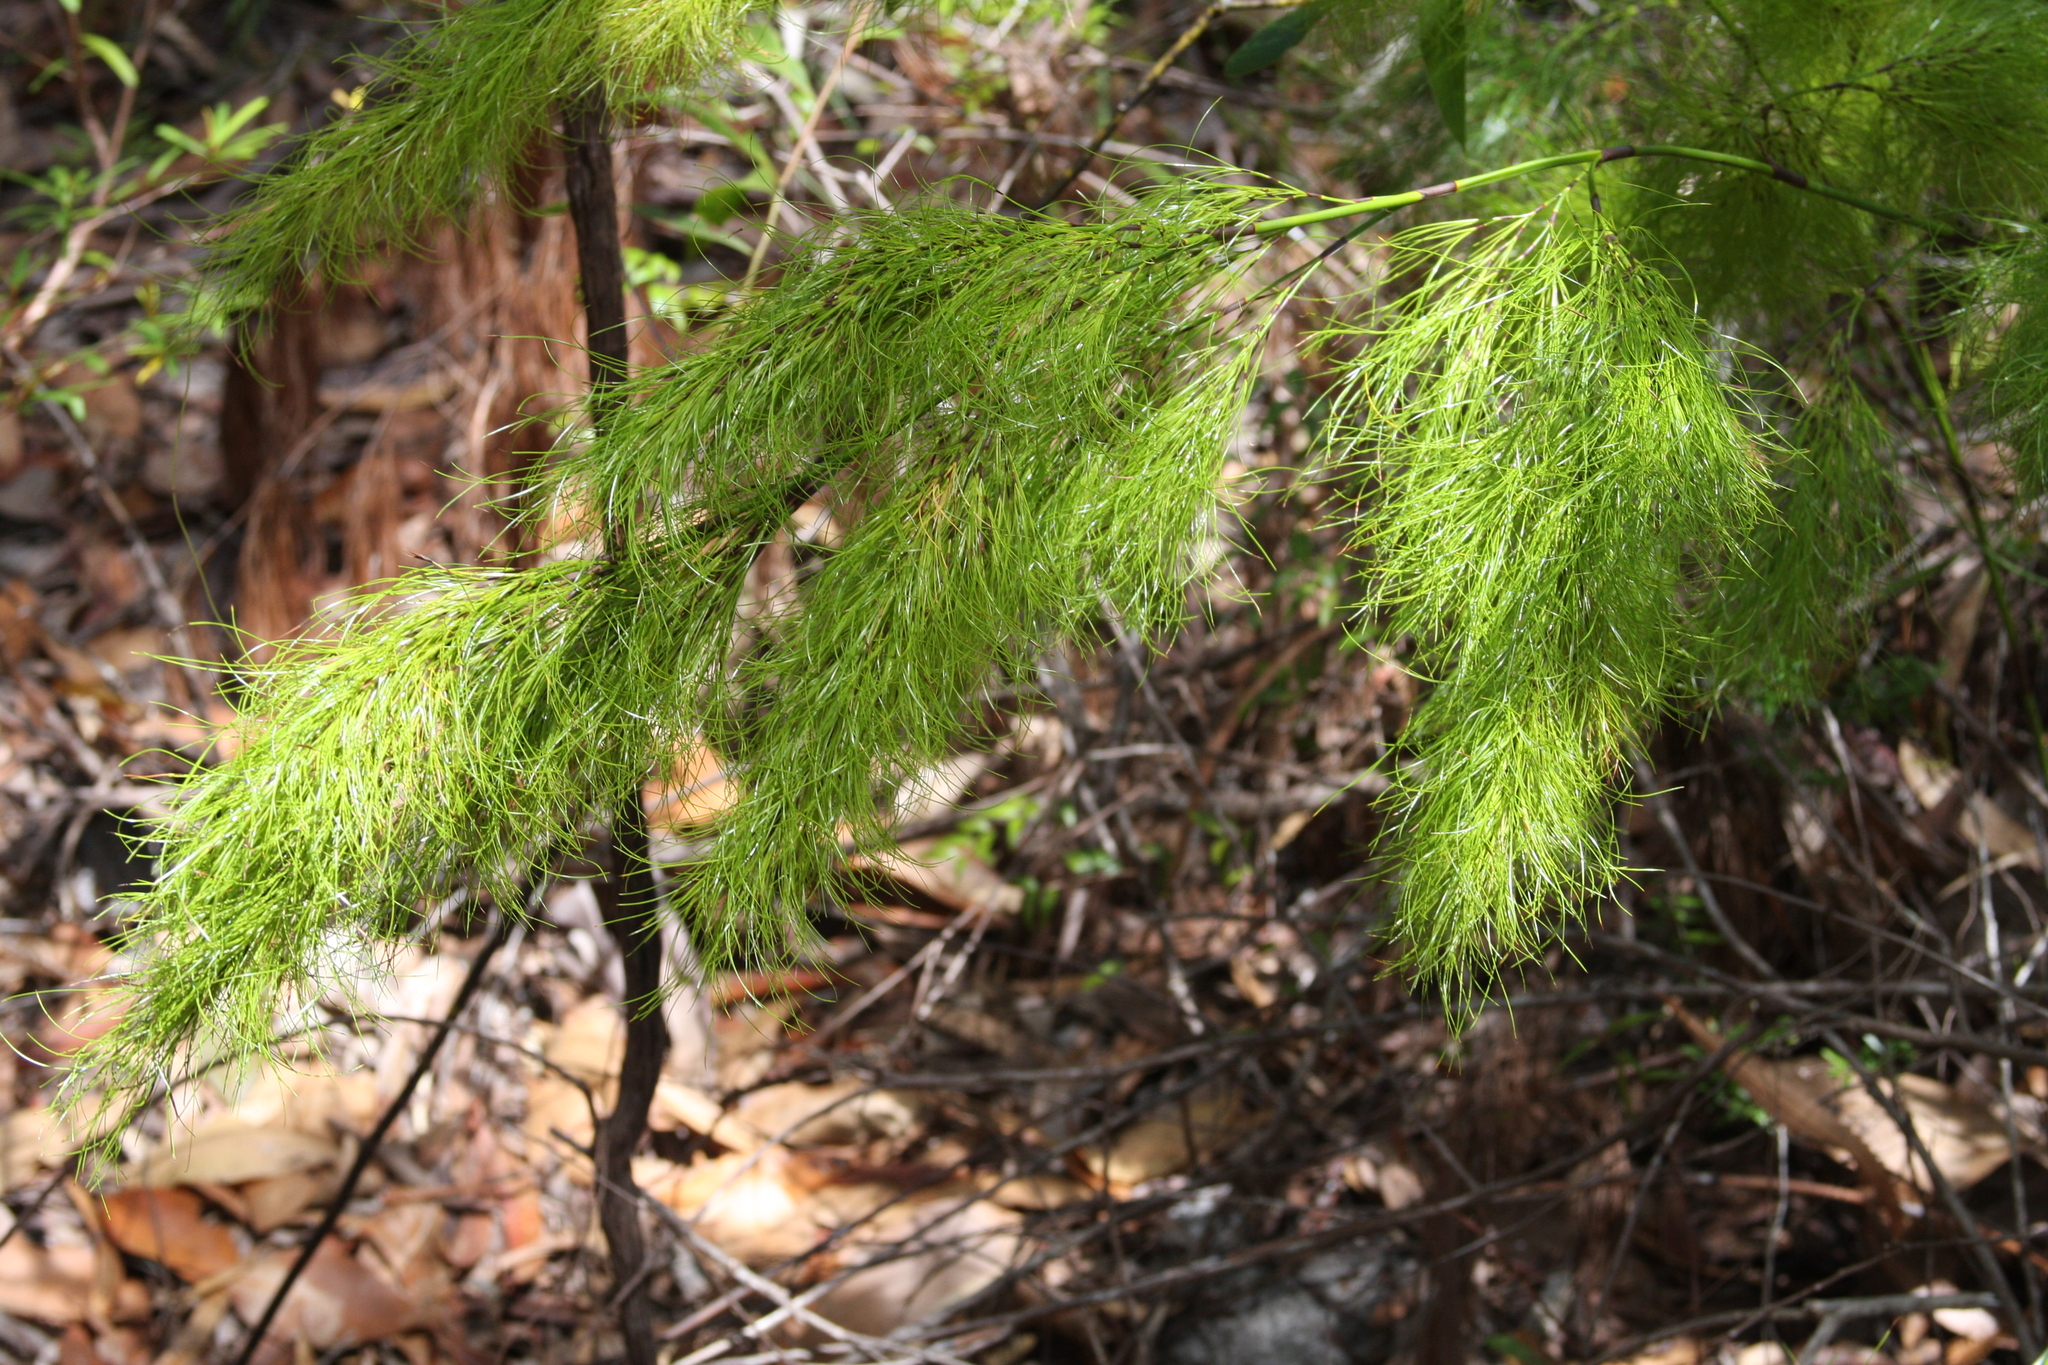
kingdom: Plantae
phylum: Tracheophyta
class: Liliopsida
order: Poales
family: Cyperaceae
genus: Caustis
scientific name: Caustis blakei
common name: Foxtail-fern
